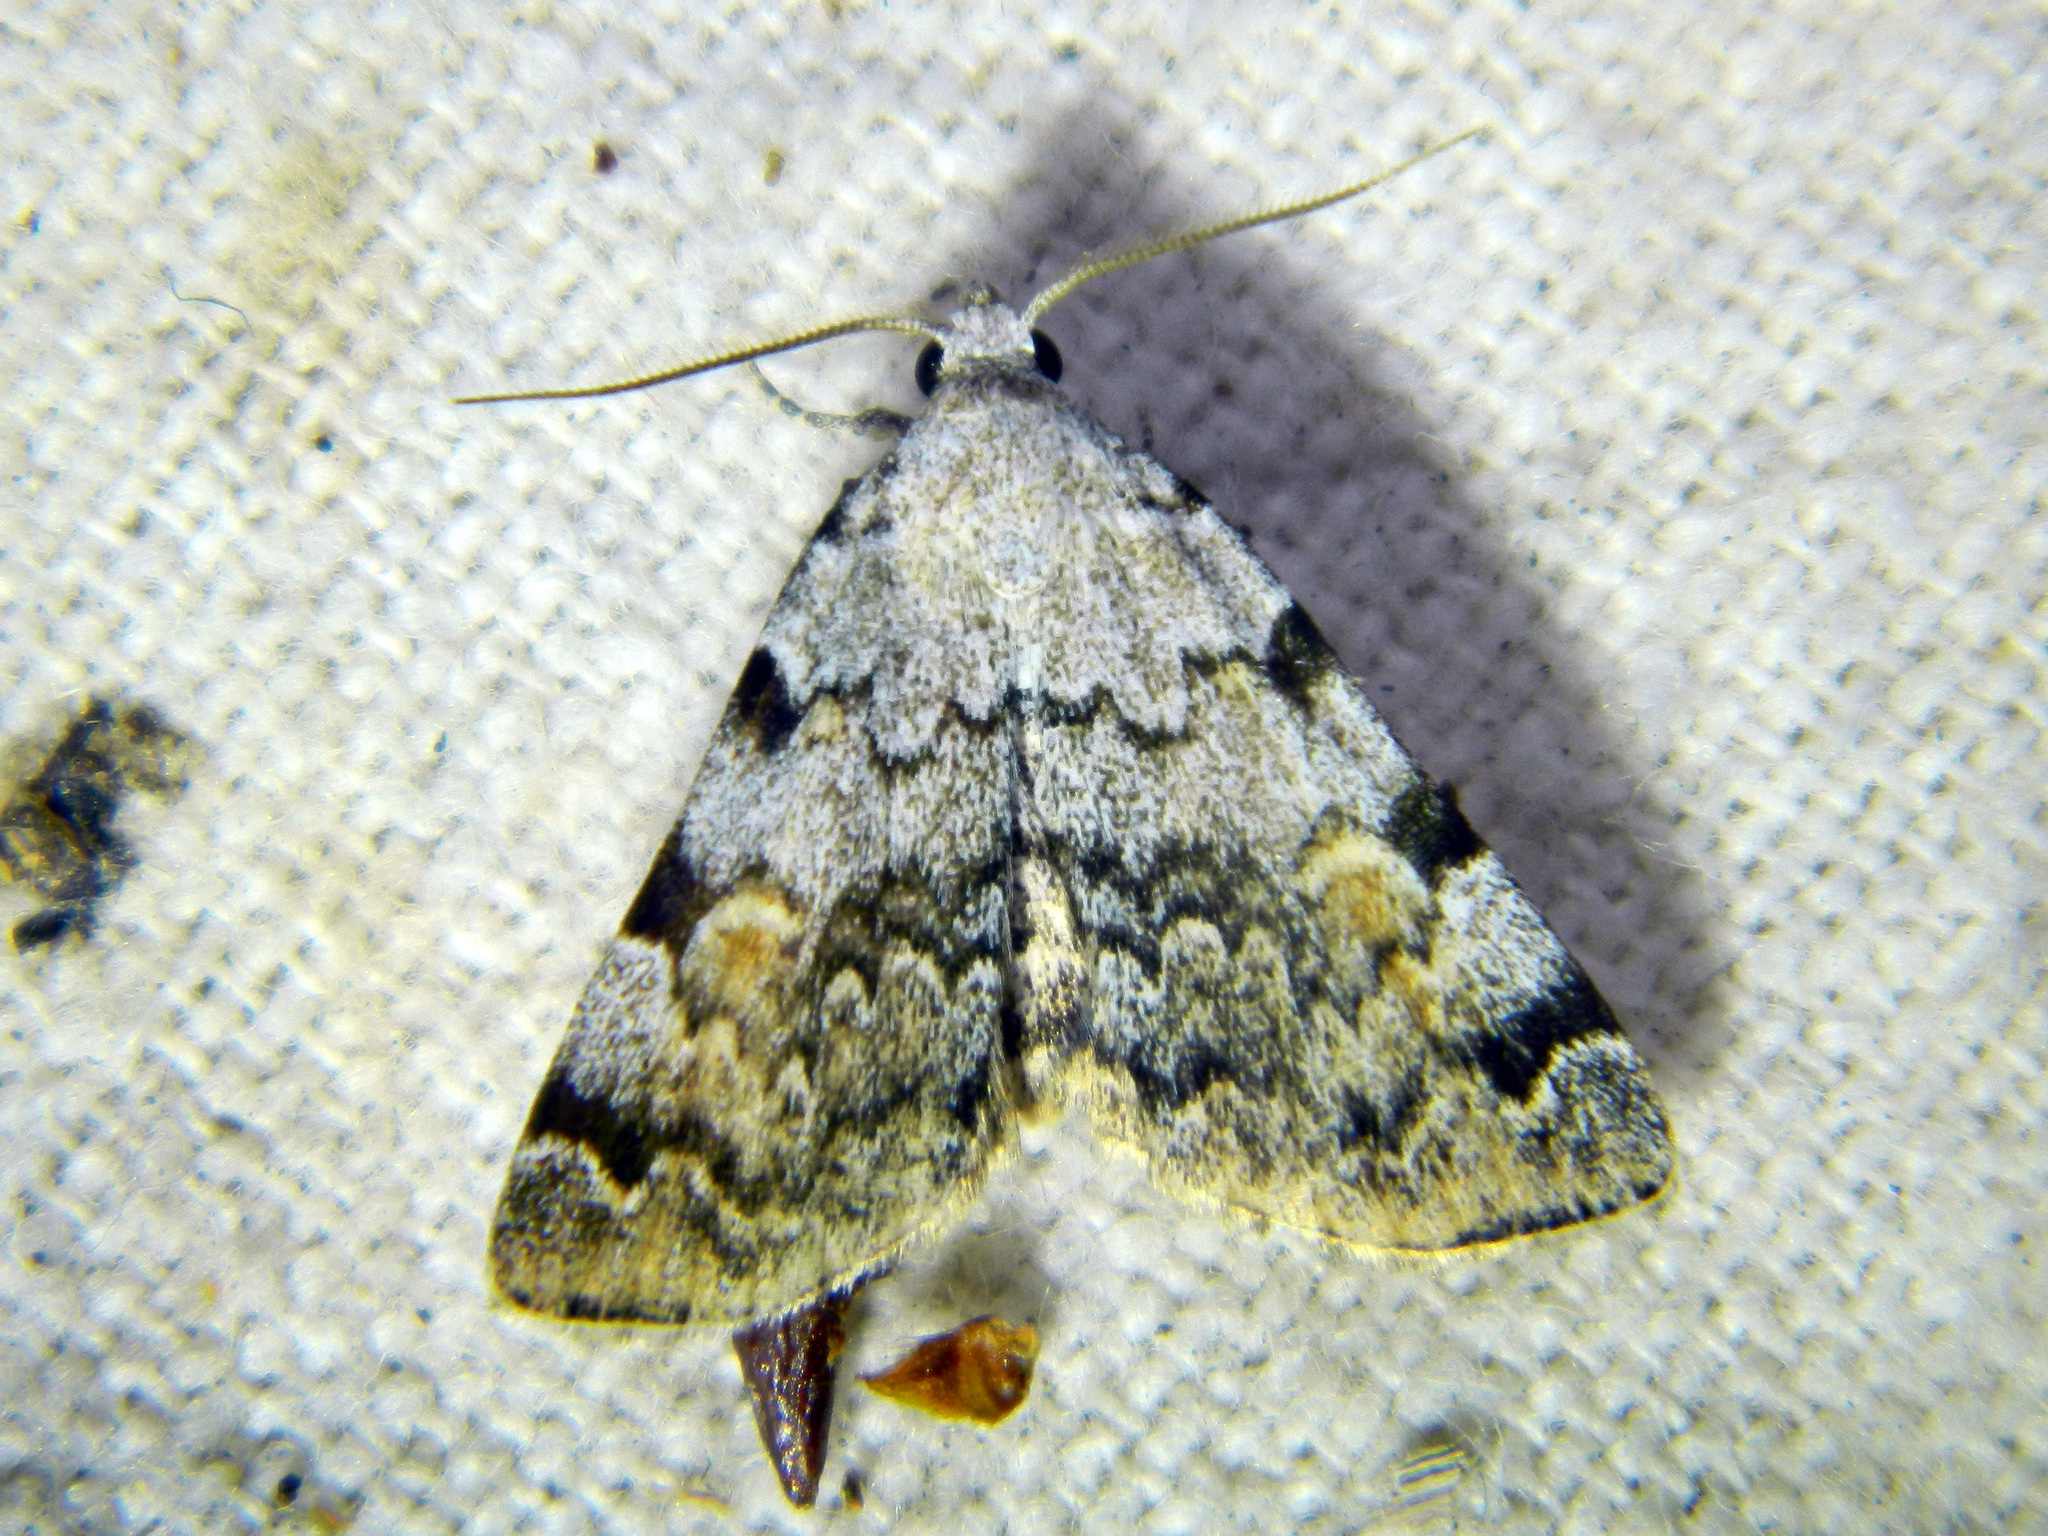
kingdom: Animalia
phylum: Arthropoda
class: Insecta
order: Lepidoptera
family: Erebidae
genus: Idia
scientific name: Idia americalis
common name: American idia moth
